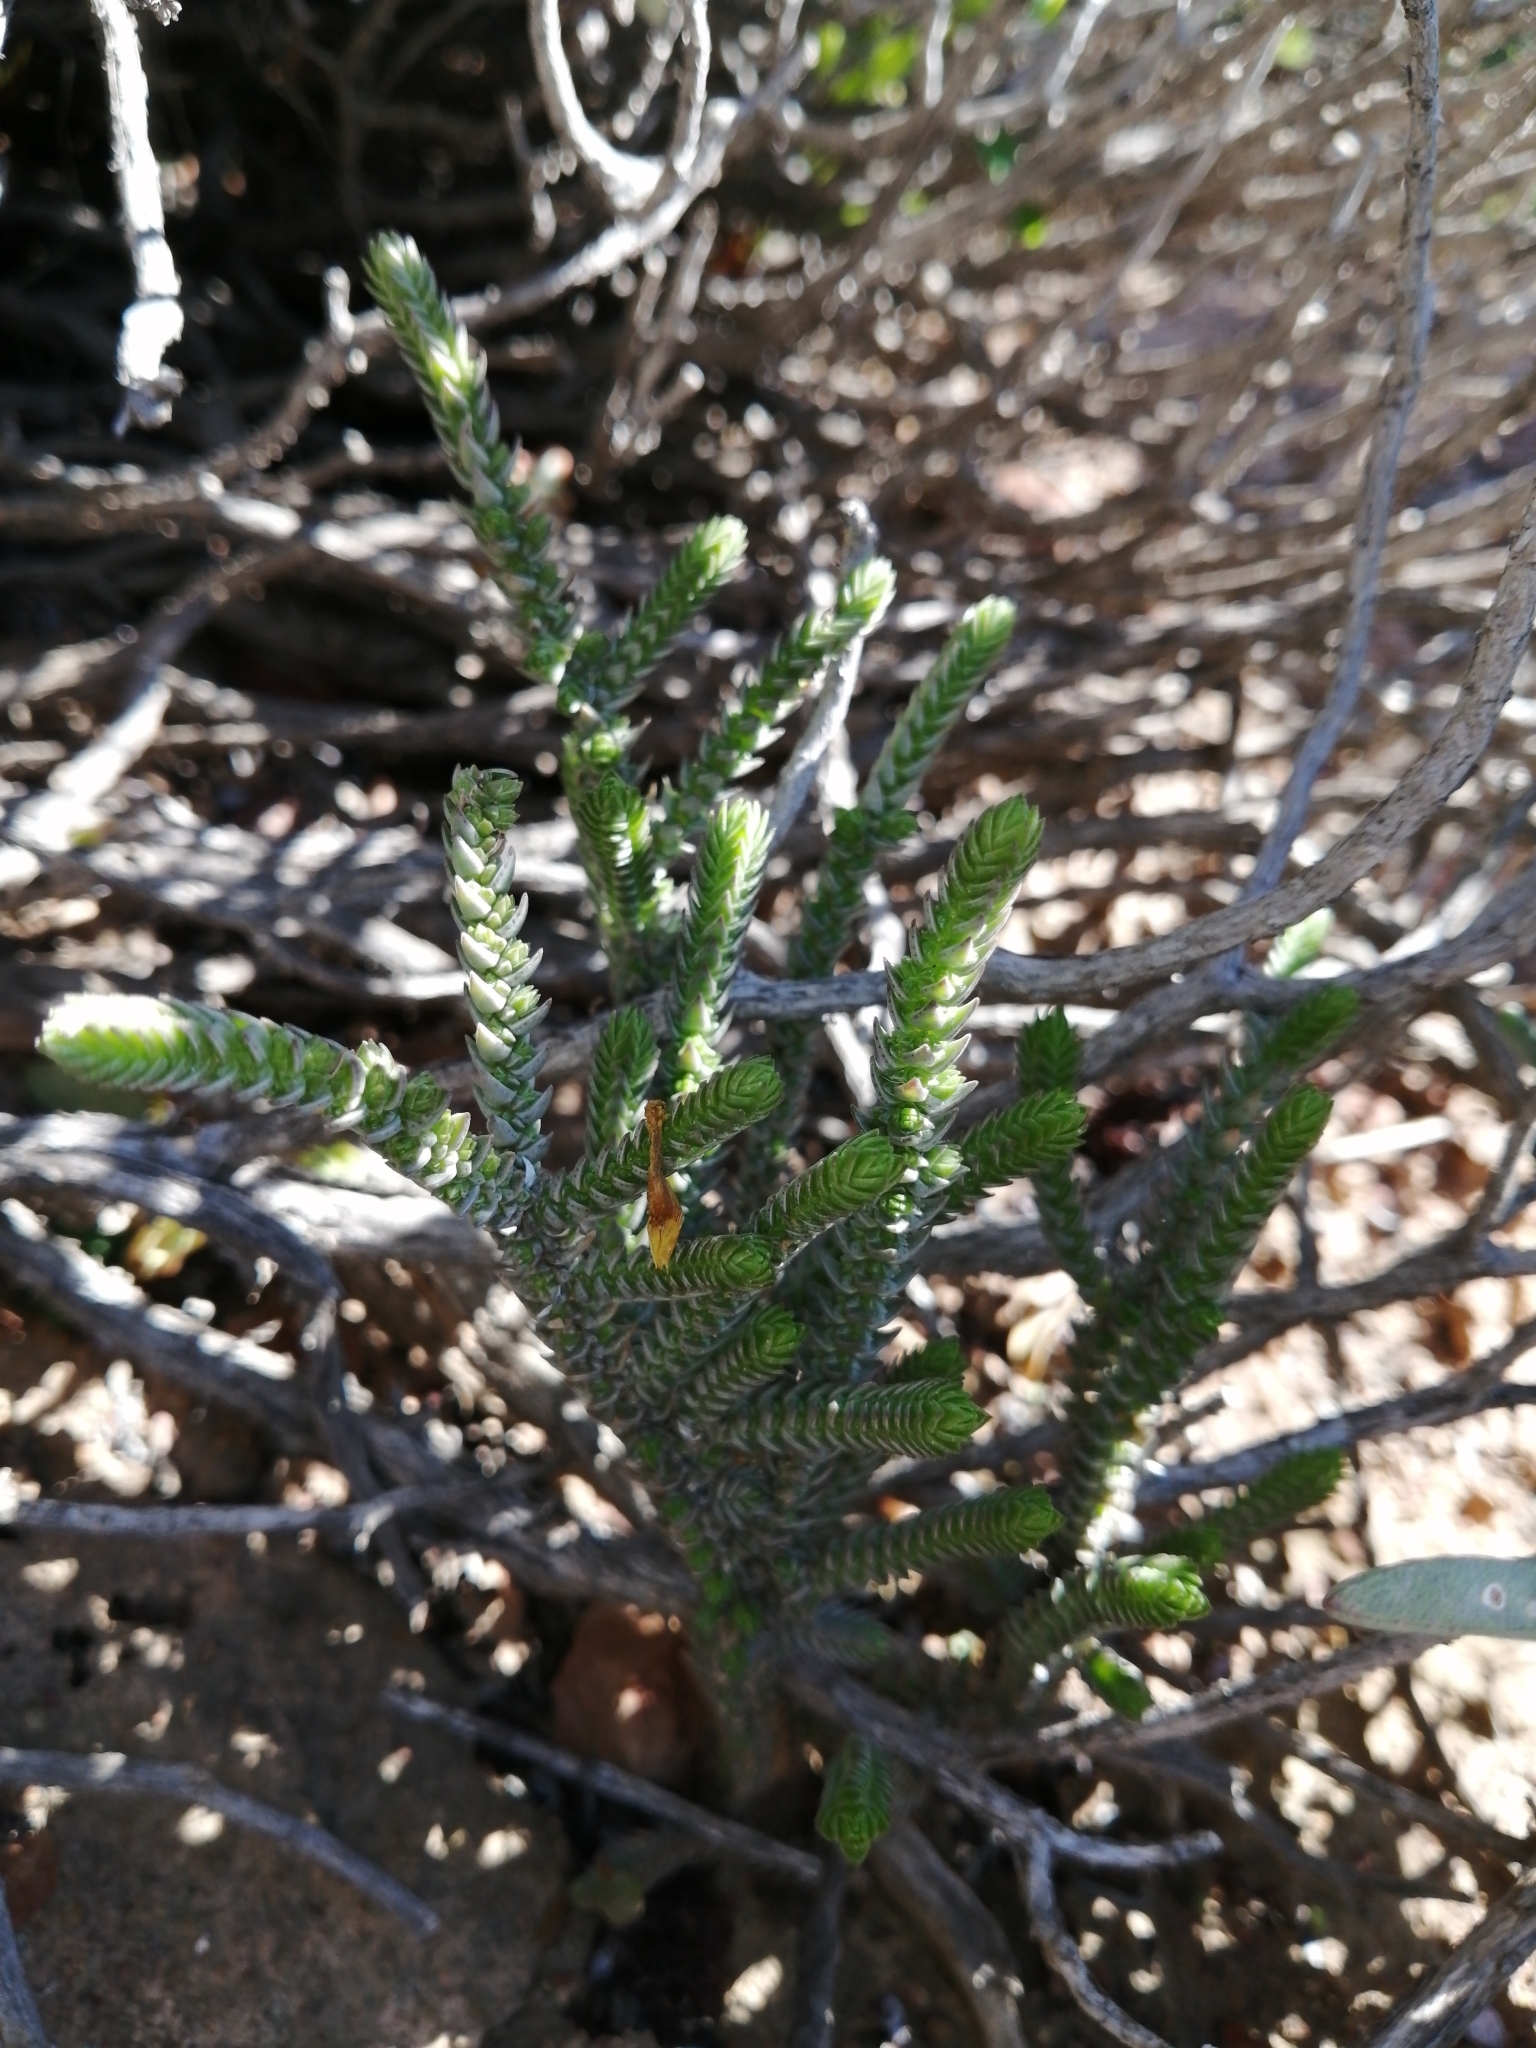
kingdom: Plantae
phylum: Tracheophyta
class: Magnoliopsida
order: Saxifragales
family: Crassulaceae
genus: Crassula
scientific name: Crassula muscosa
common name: Toy-cypress
